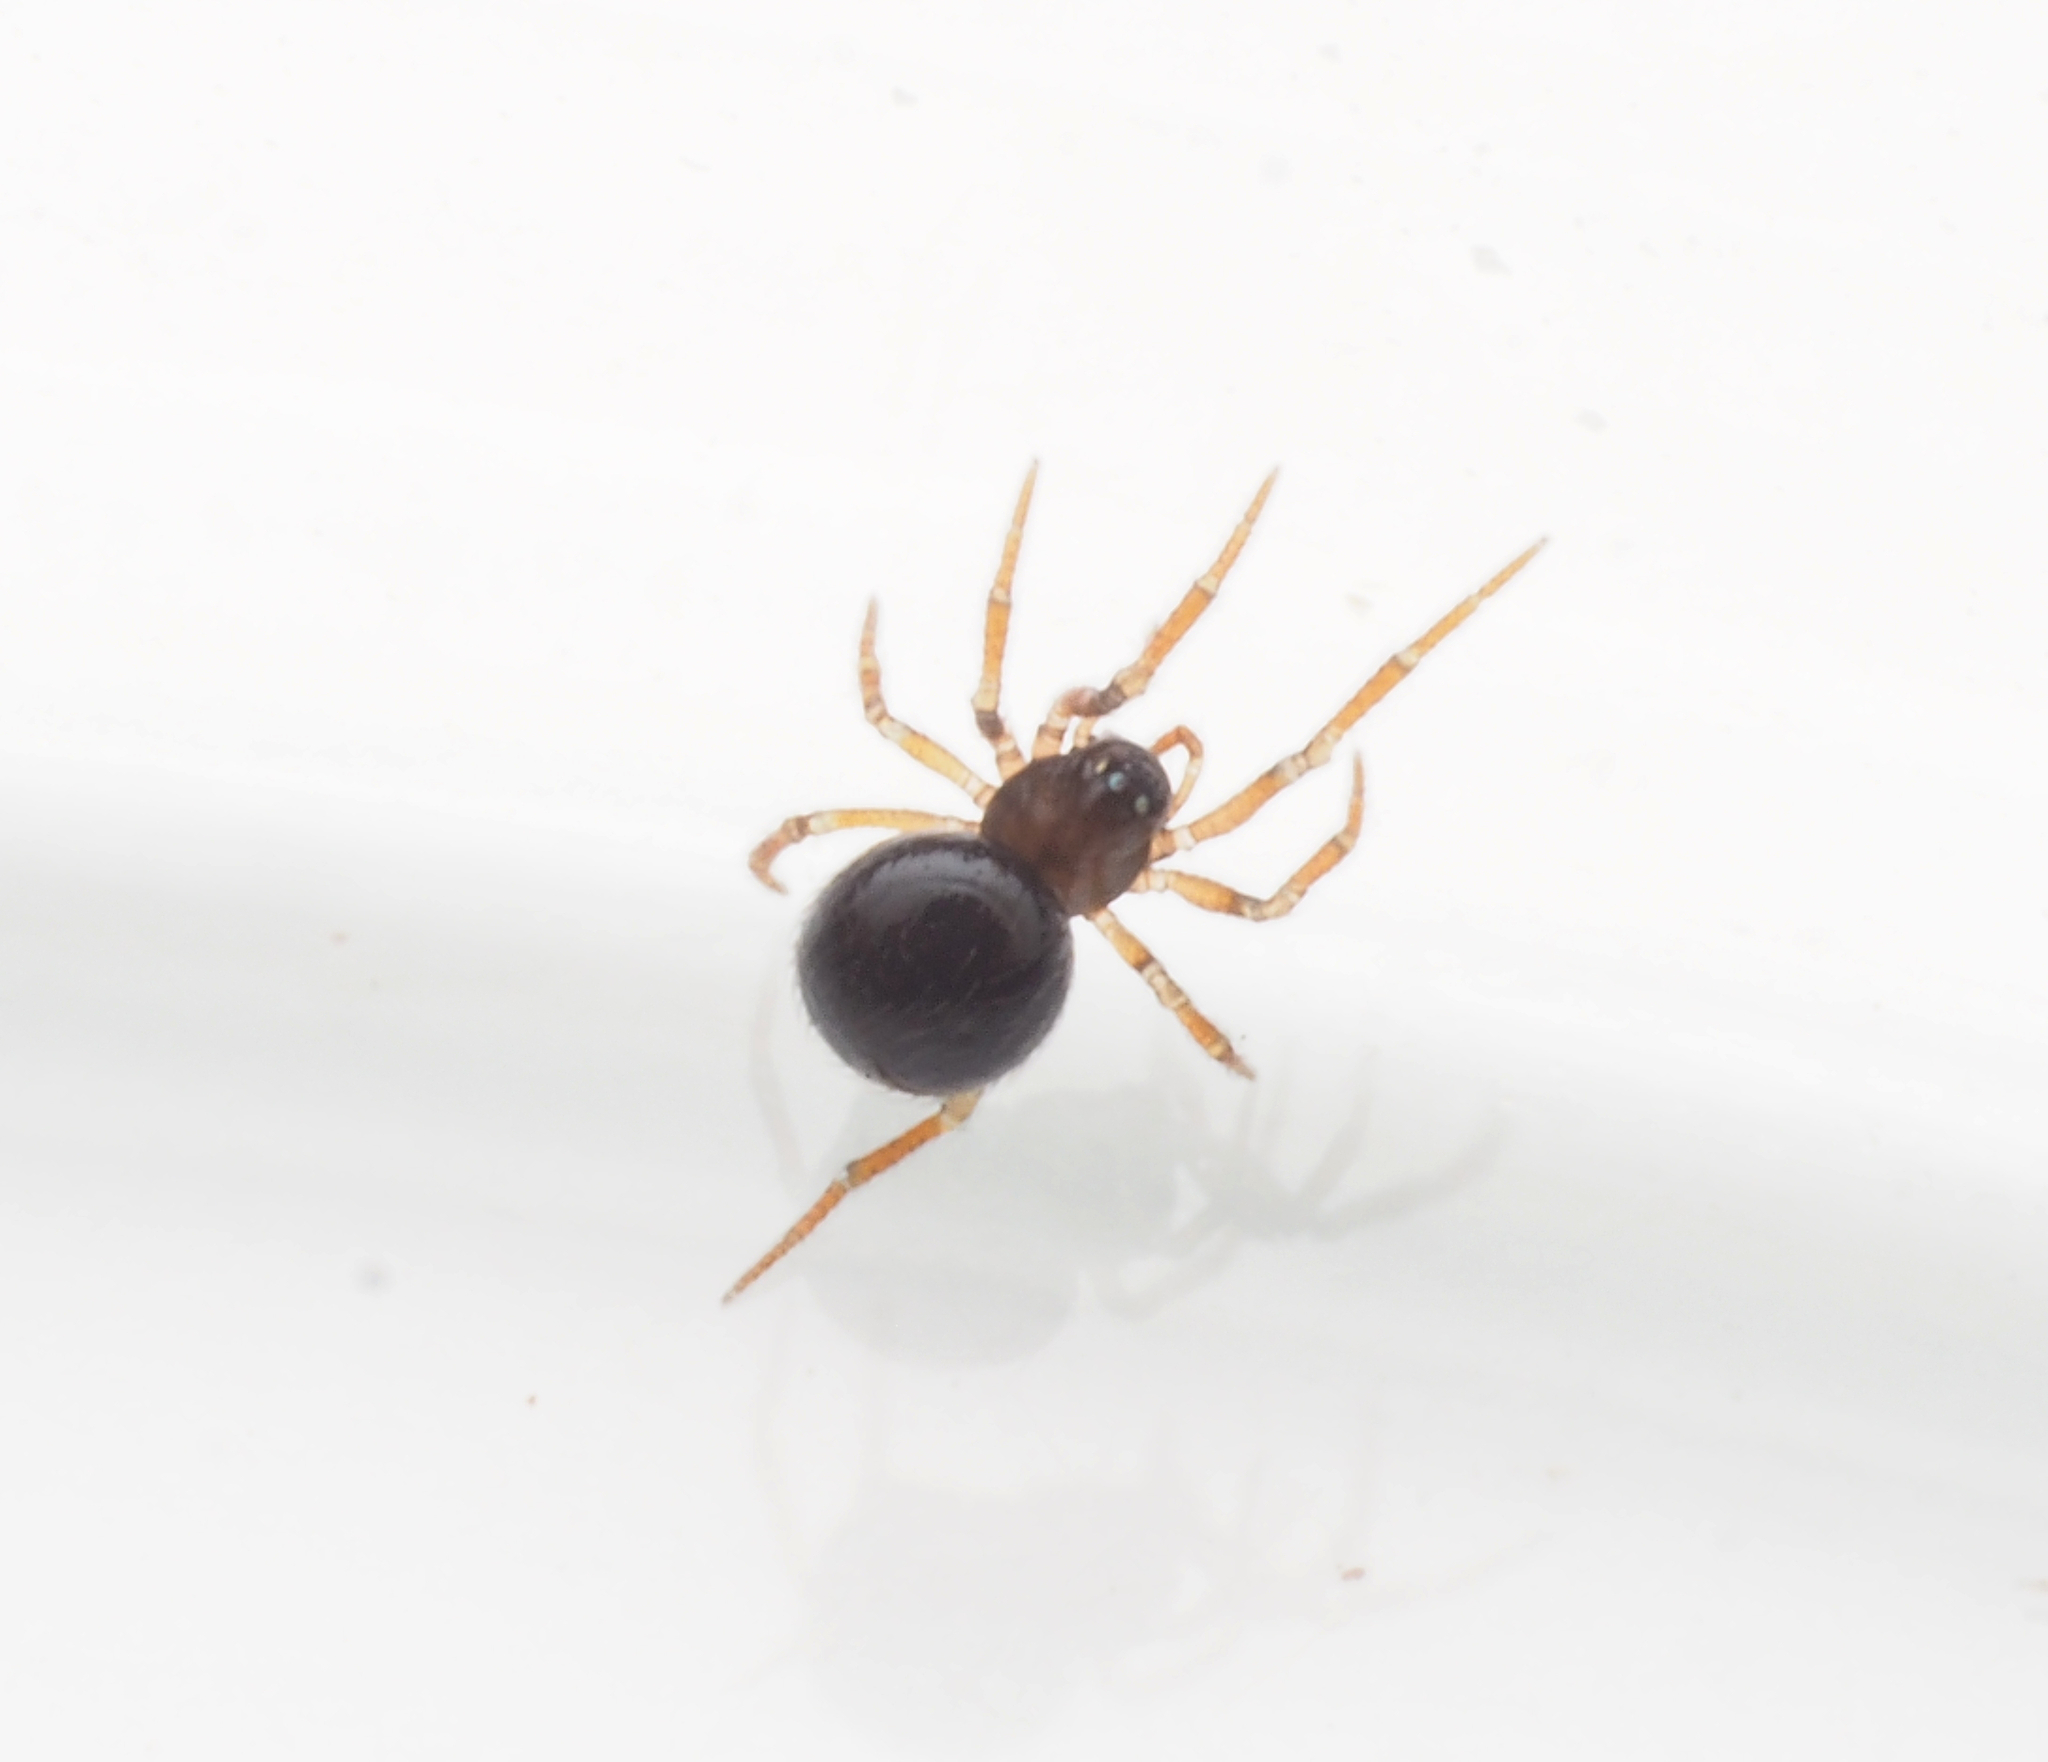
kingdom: Animalia
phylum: Arthropoda
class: Arachnida
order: Araneae
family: Theridiidae
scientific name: Theridiidae
